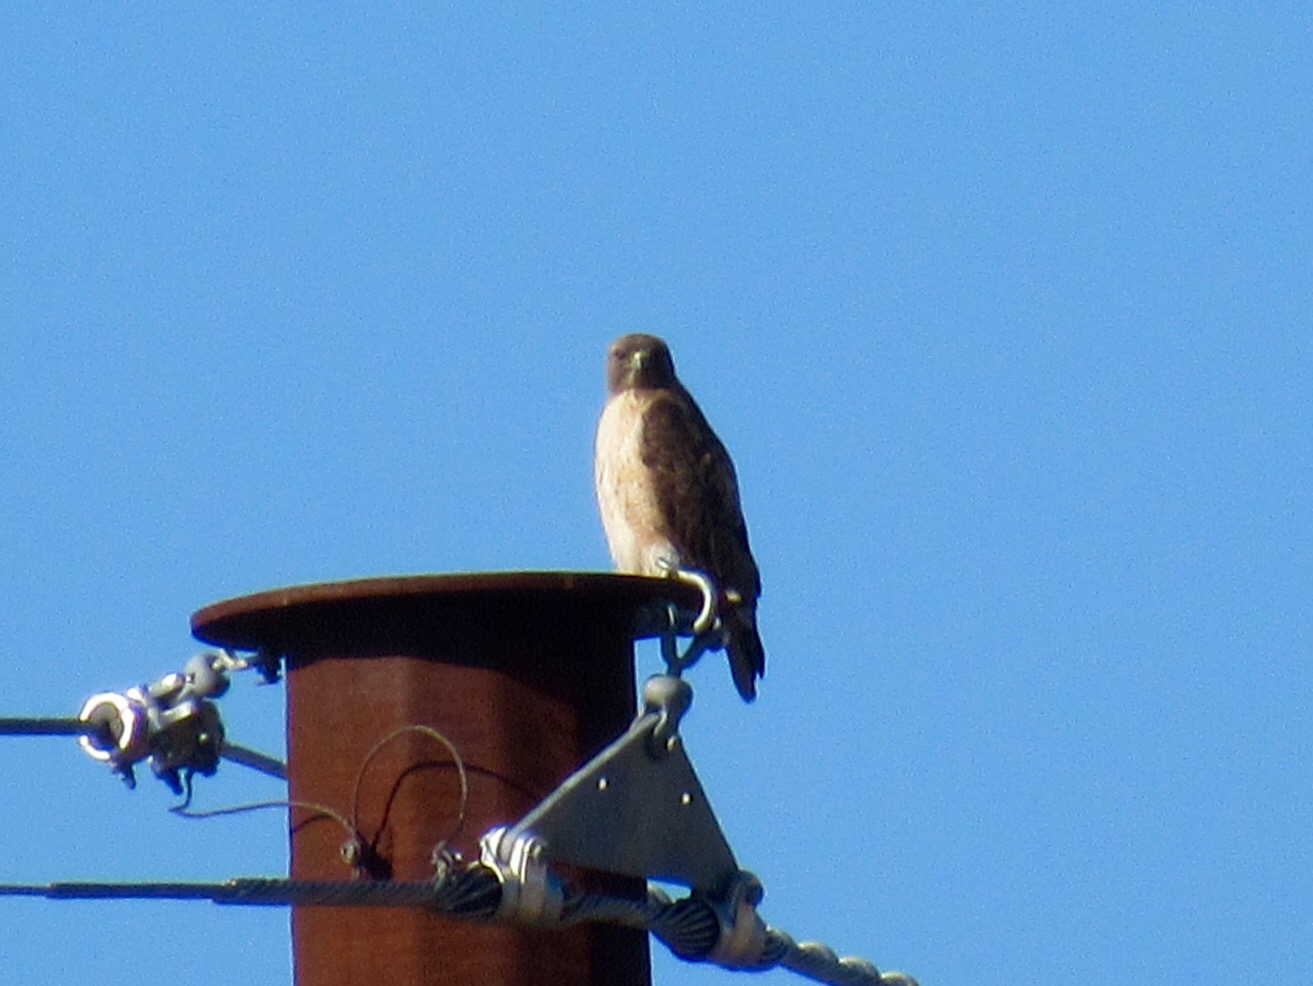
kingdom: Animalia
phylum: Chordata
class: Aves
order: Accipitriformes
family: Accipitridae
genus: Buteo
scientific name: Buteo jamaicensis
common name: Red-tailed hawk
